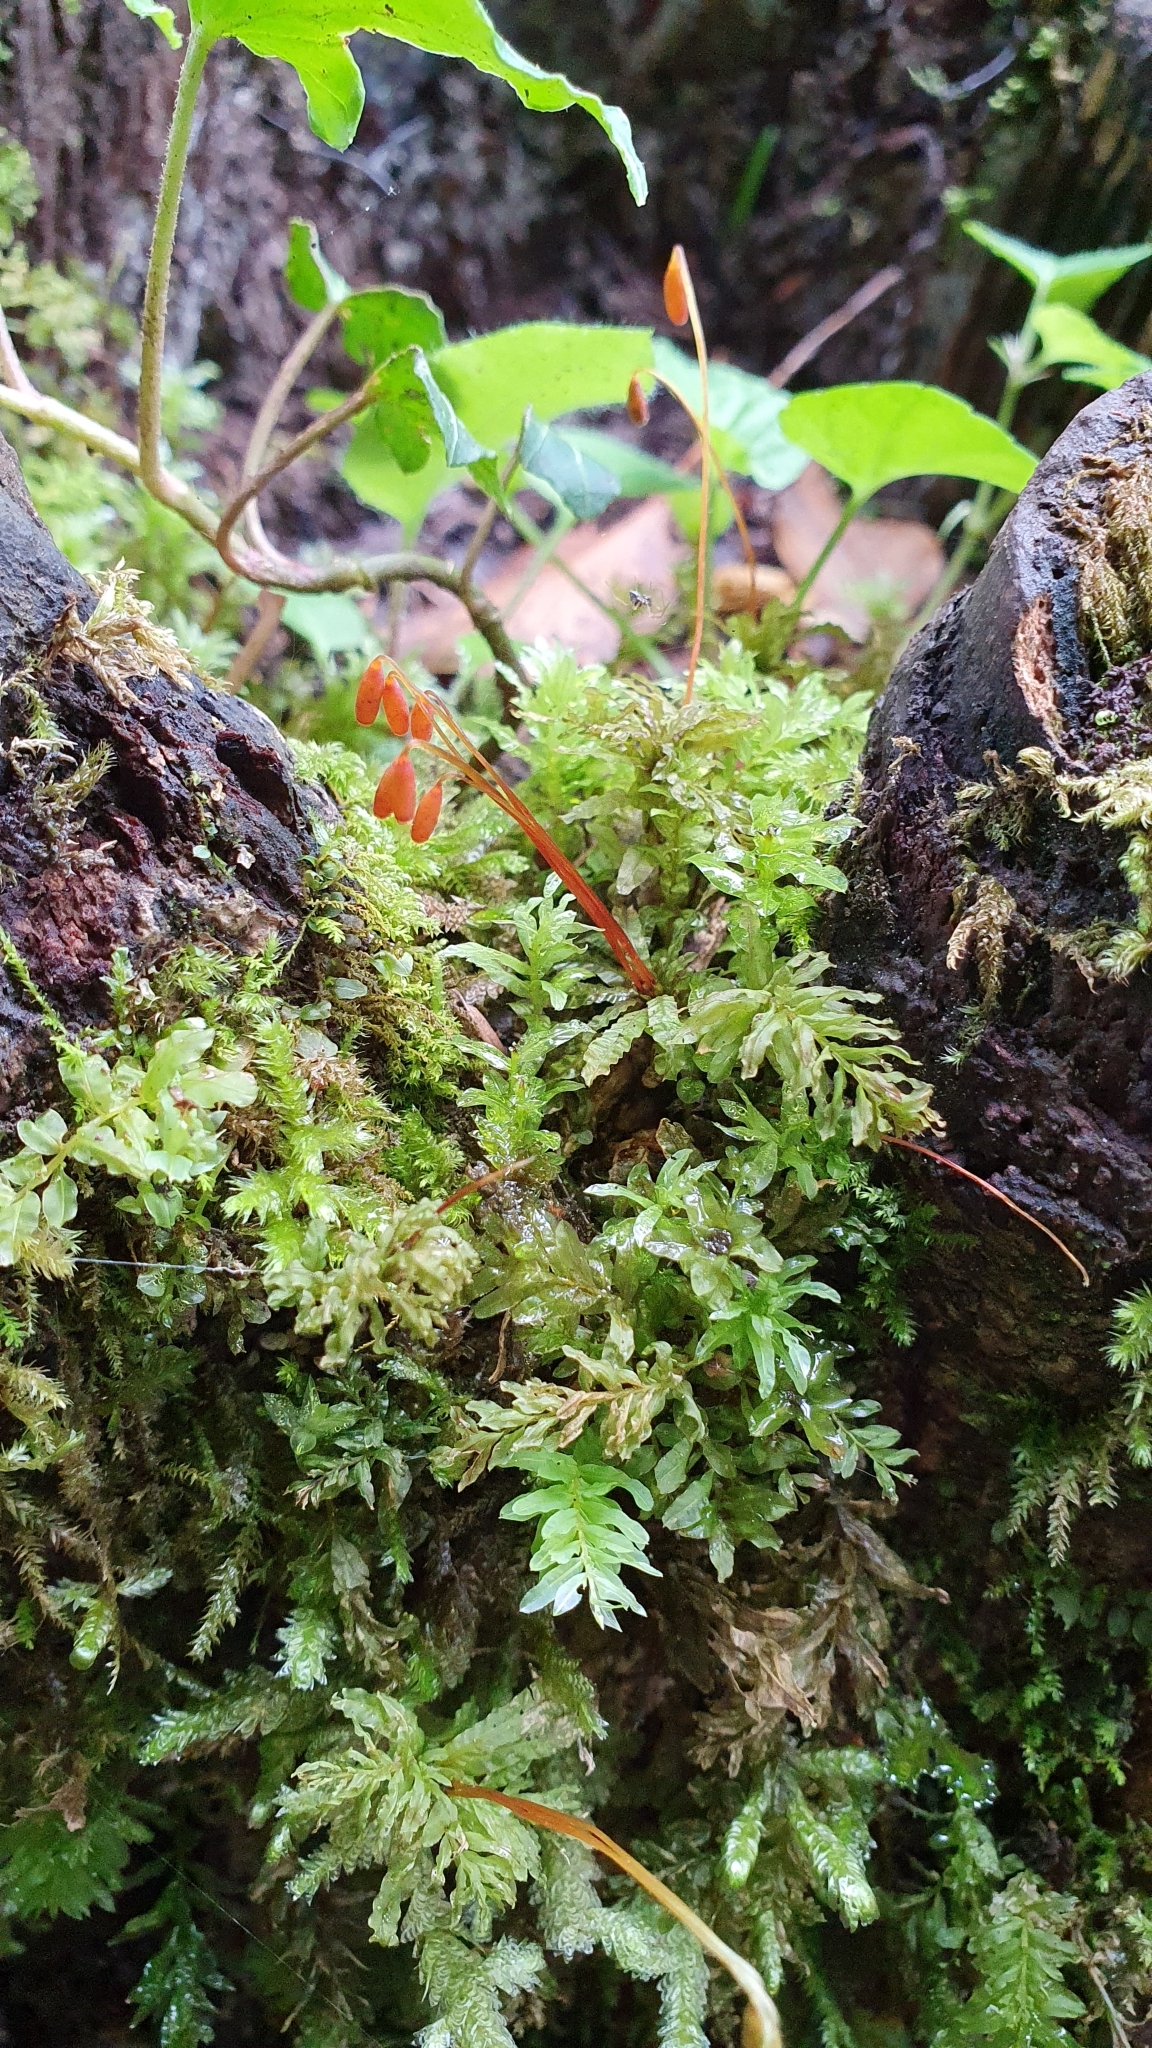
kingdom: Plantae
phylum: Bryophyta
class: Bryopsida
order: Bryales
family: Mniaceae
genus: Plagiomnium
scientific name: Plagiomnium undulatum
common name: Hart's-tongue thyme-moss
